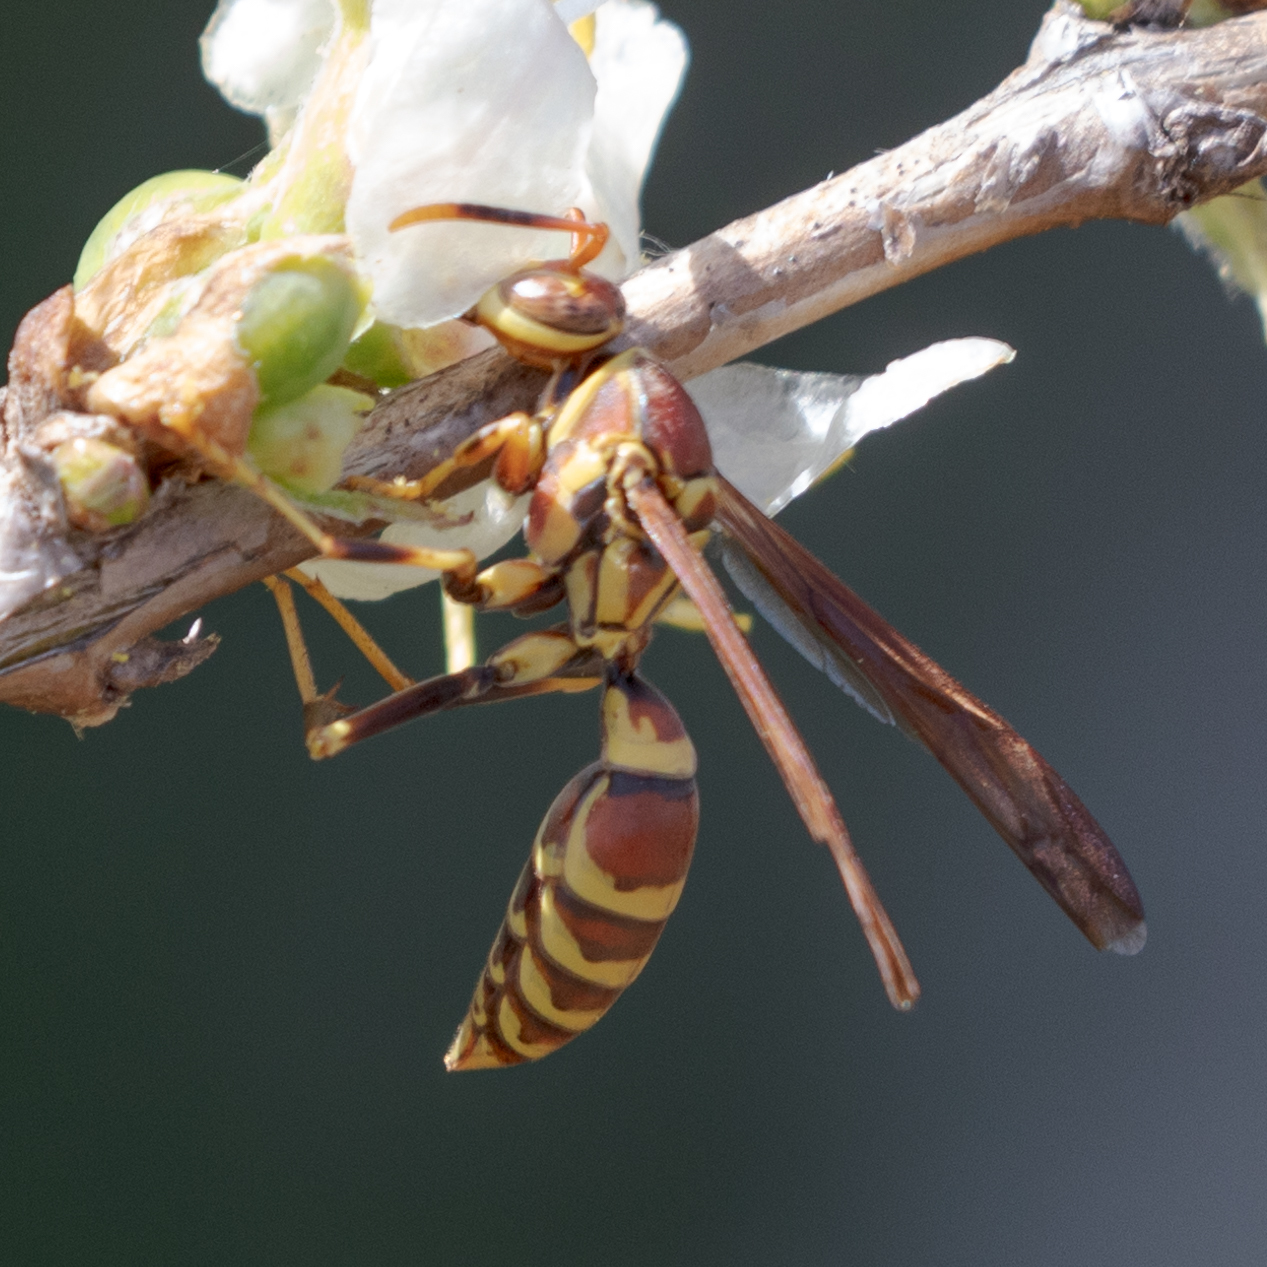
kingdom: Animalia
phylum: Arthropoda
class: Insecta
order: Hymenoptera
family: Eumenidae
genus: Polistes
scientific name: Polistes exclamans
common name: Paper wasp
